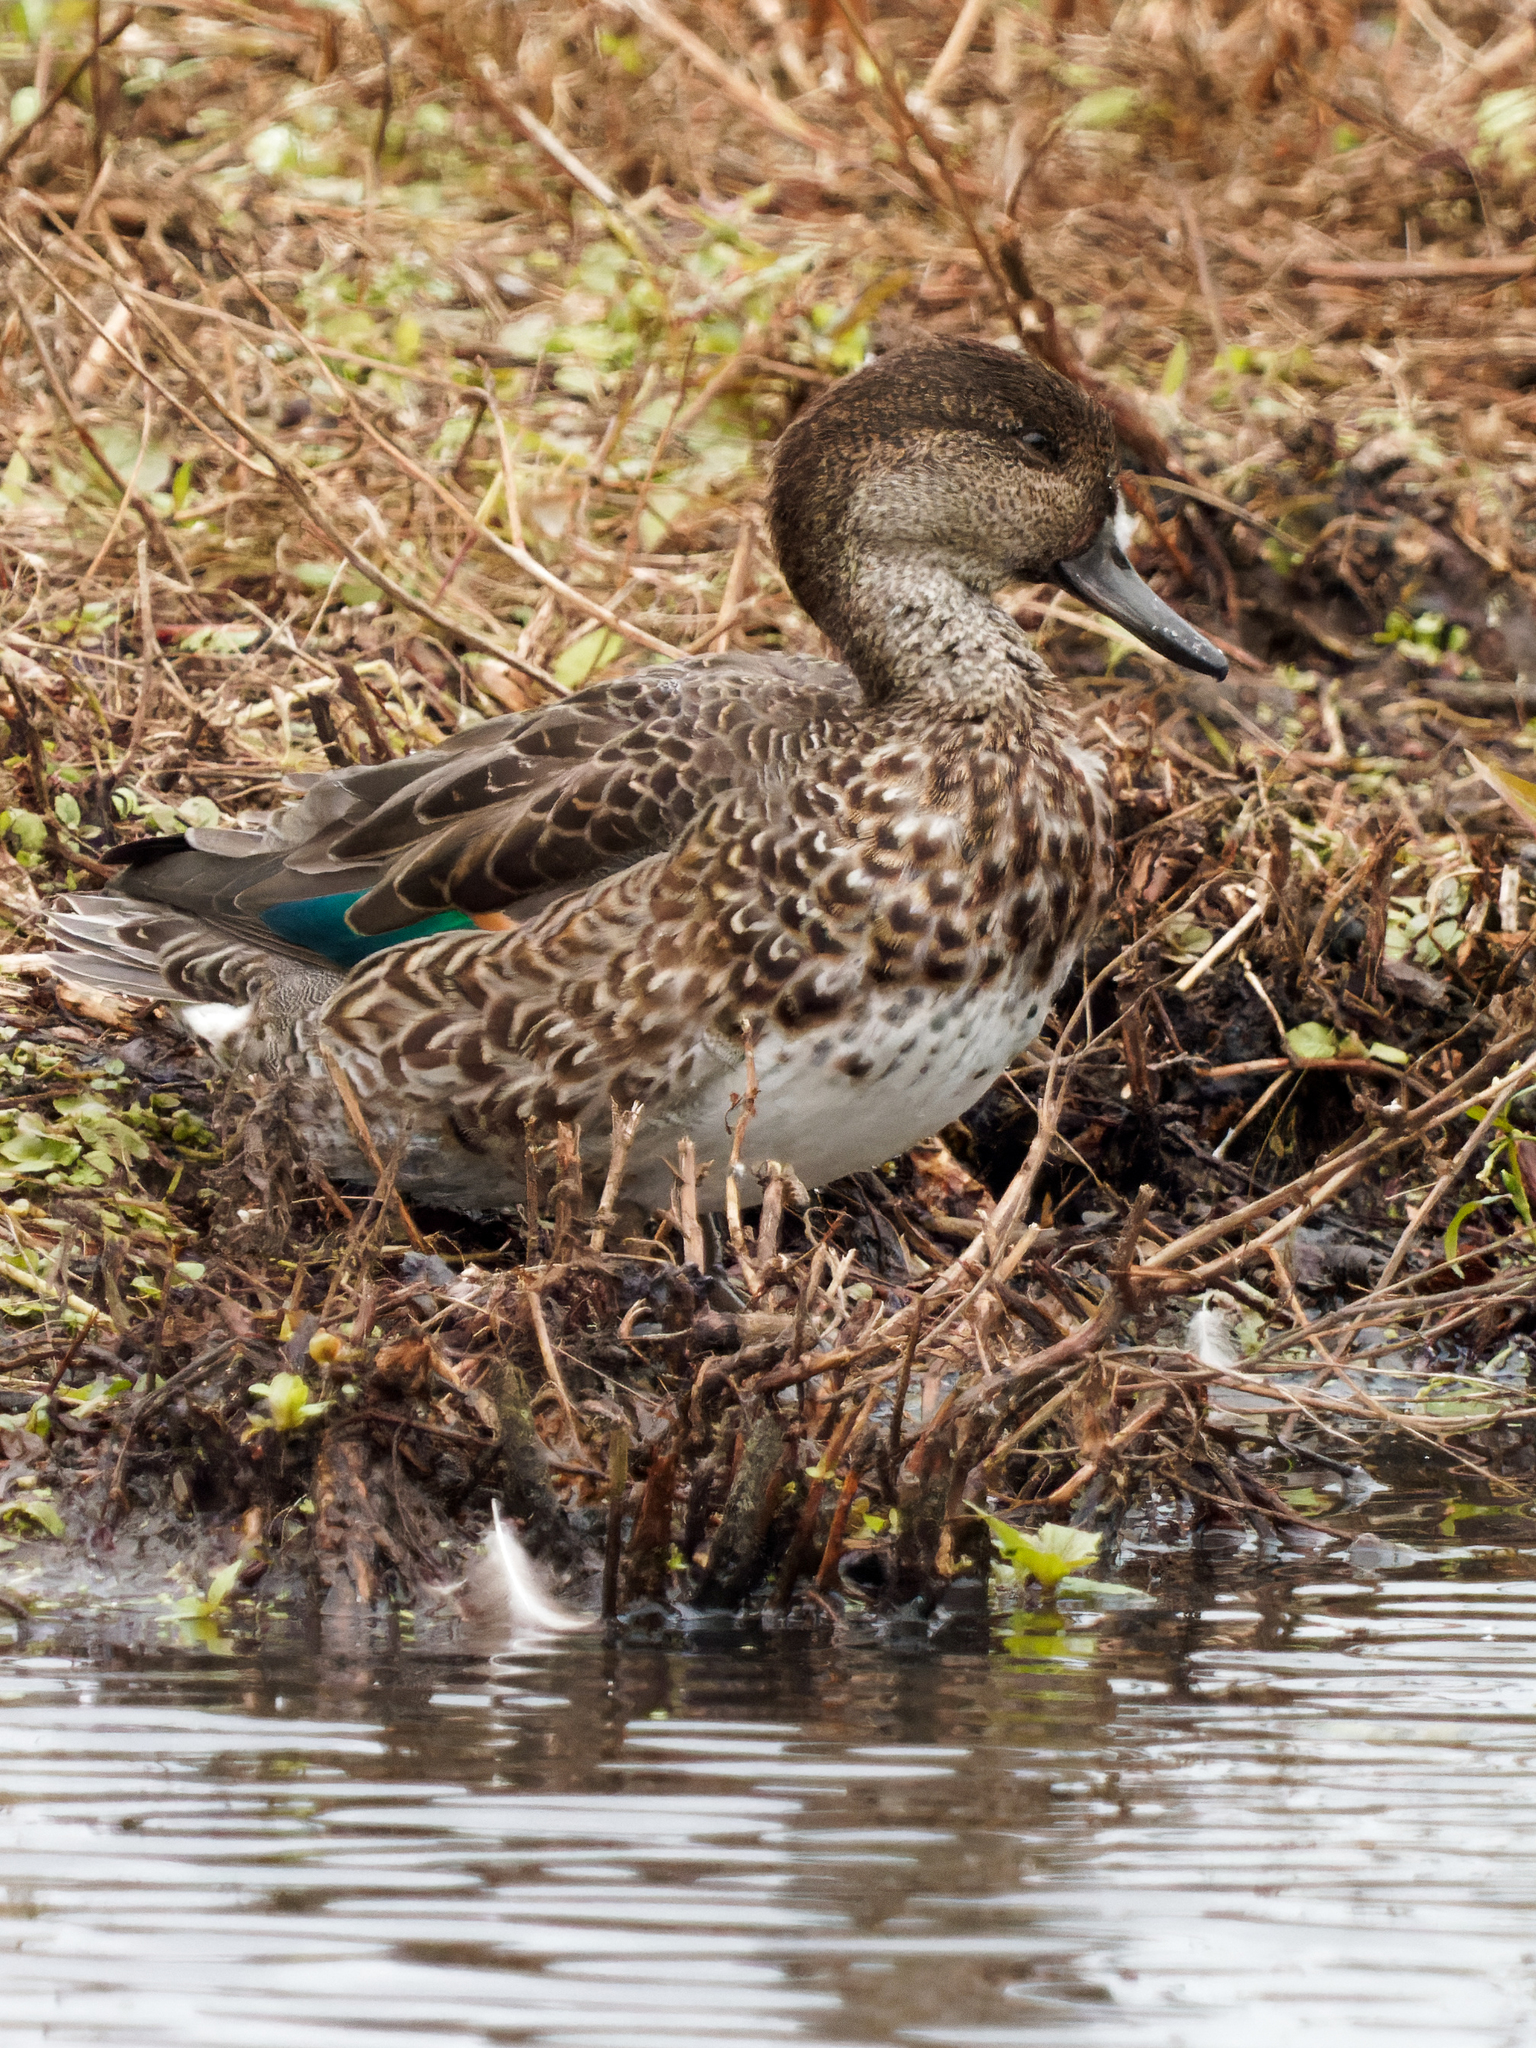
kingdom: Animalia
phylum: Chordata
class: Aves
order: Anseriformes
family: Anatidae
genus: Anas
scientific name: Anas crecca
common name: Eurasian teal
